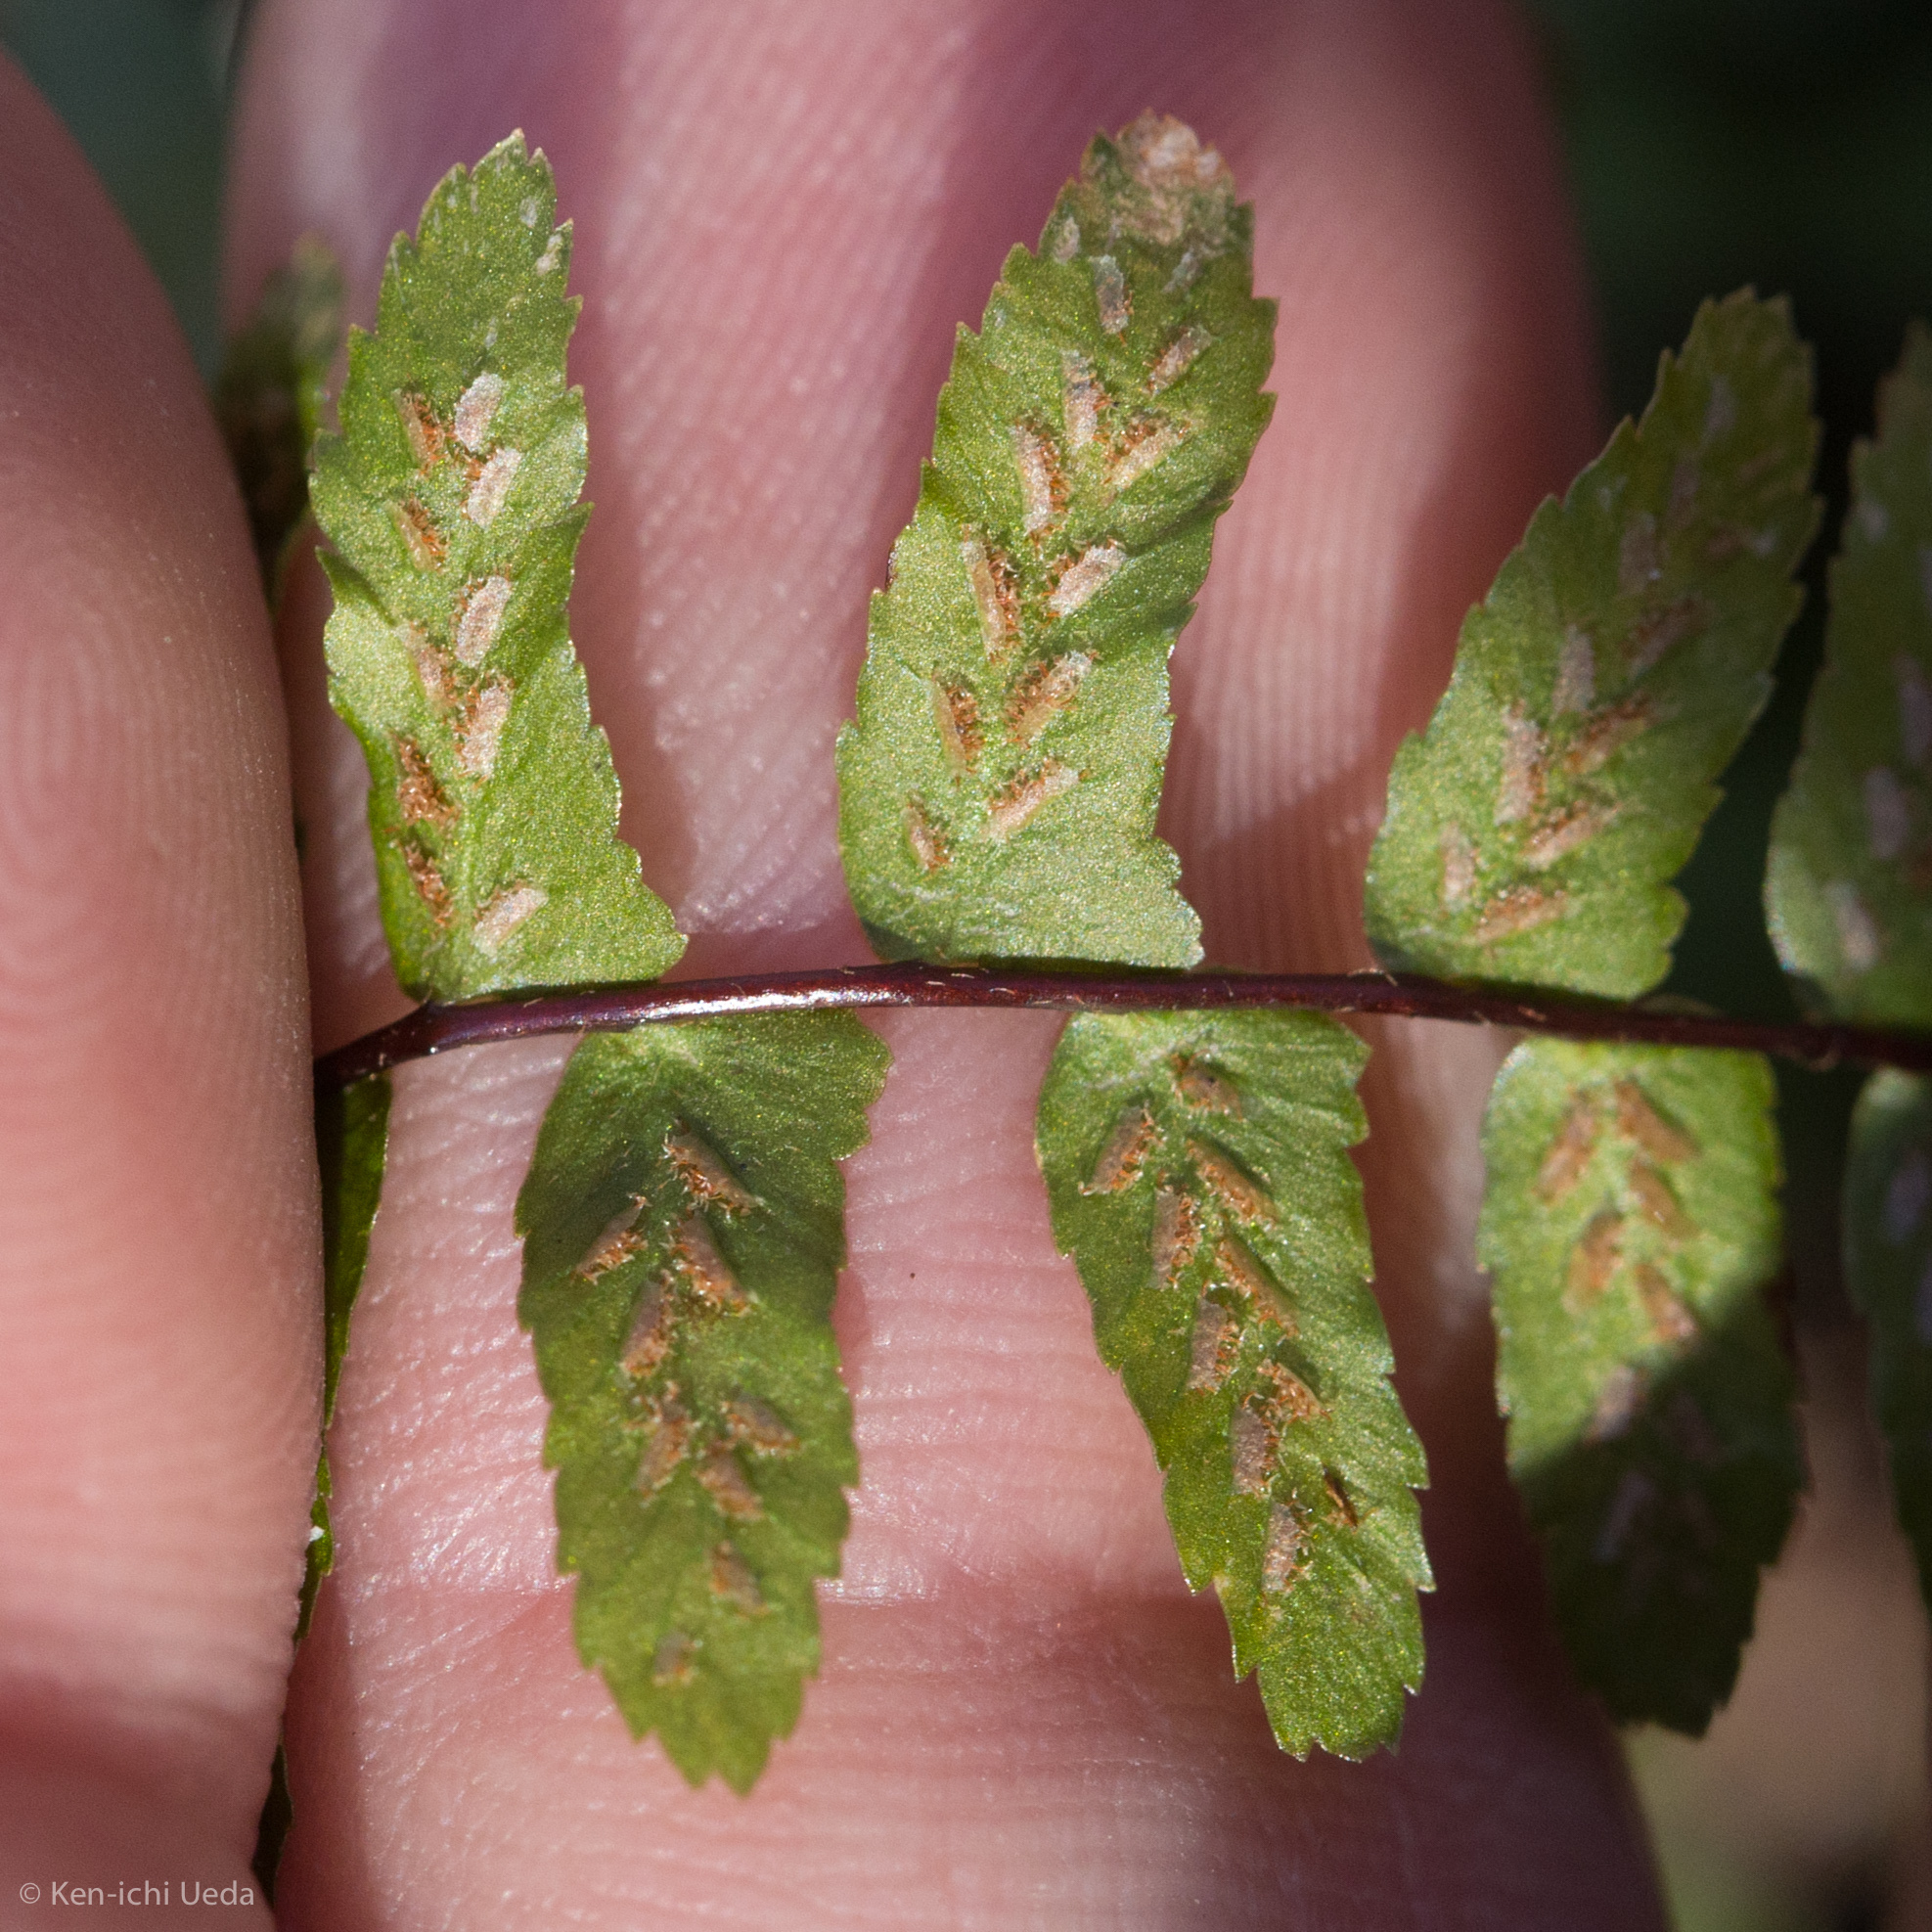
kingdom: Plantae
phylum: Tracheophyta
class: Polypodiopsida
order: Polypodiales
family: Aspleniaceae
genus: Asplenium
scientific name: Asplenium platyneuron
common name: Ebony spleenwort
